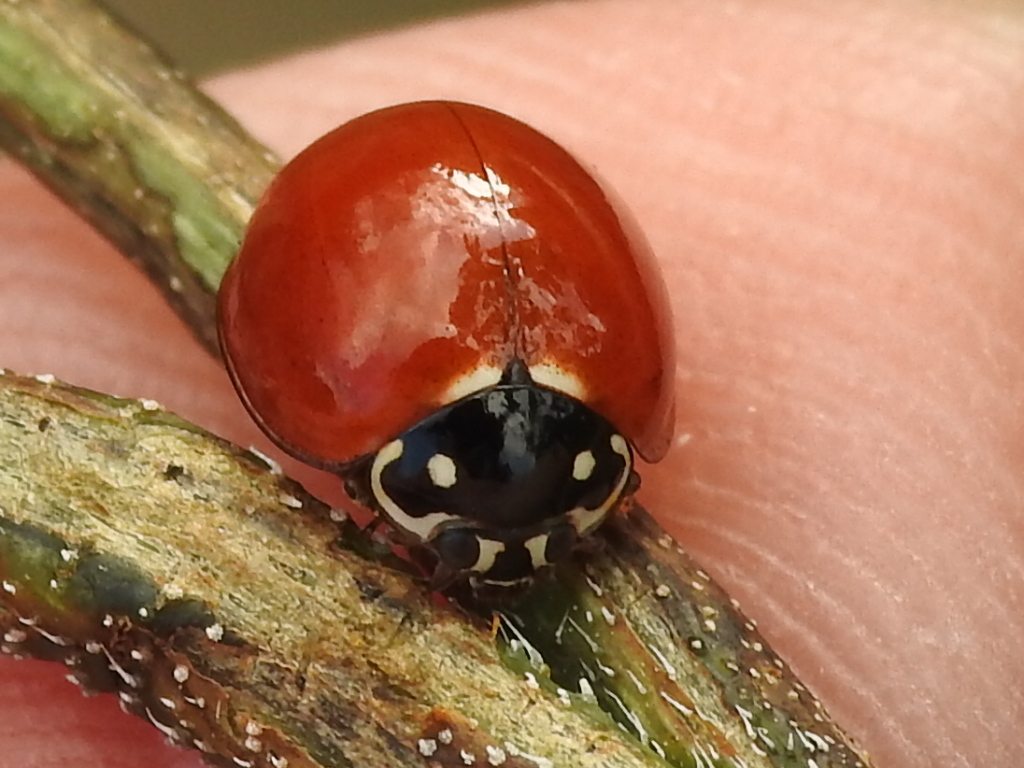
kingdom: Animalia
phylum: Arthropoda
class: Insecta
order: Coleoptera
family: Coccinellidae
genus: Cycloneda
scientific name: Cycloneda sanguinea
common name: Ladybird beetle
